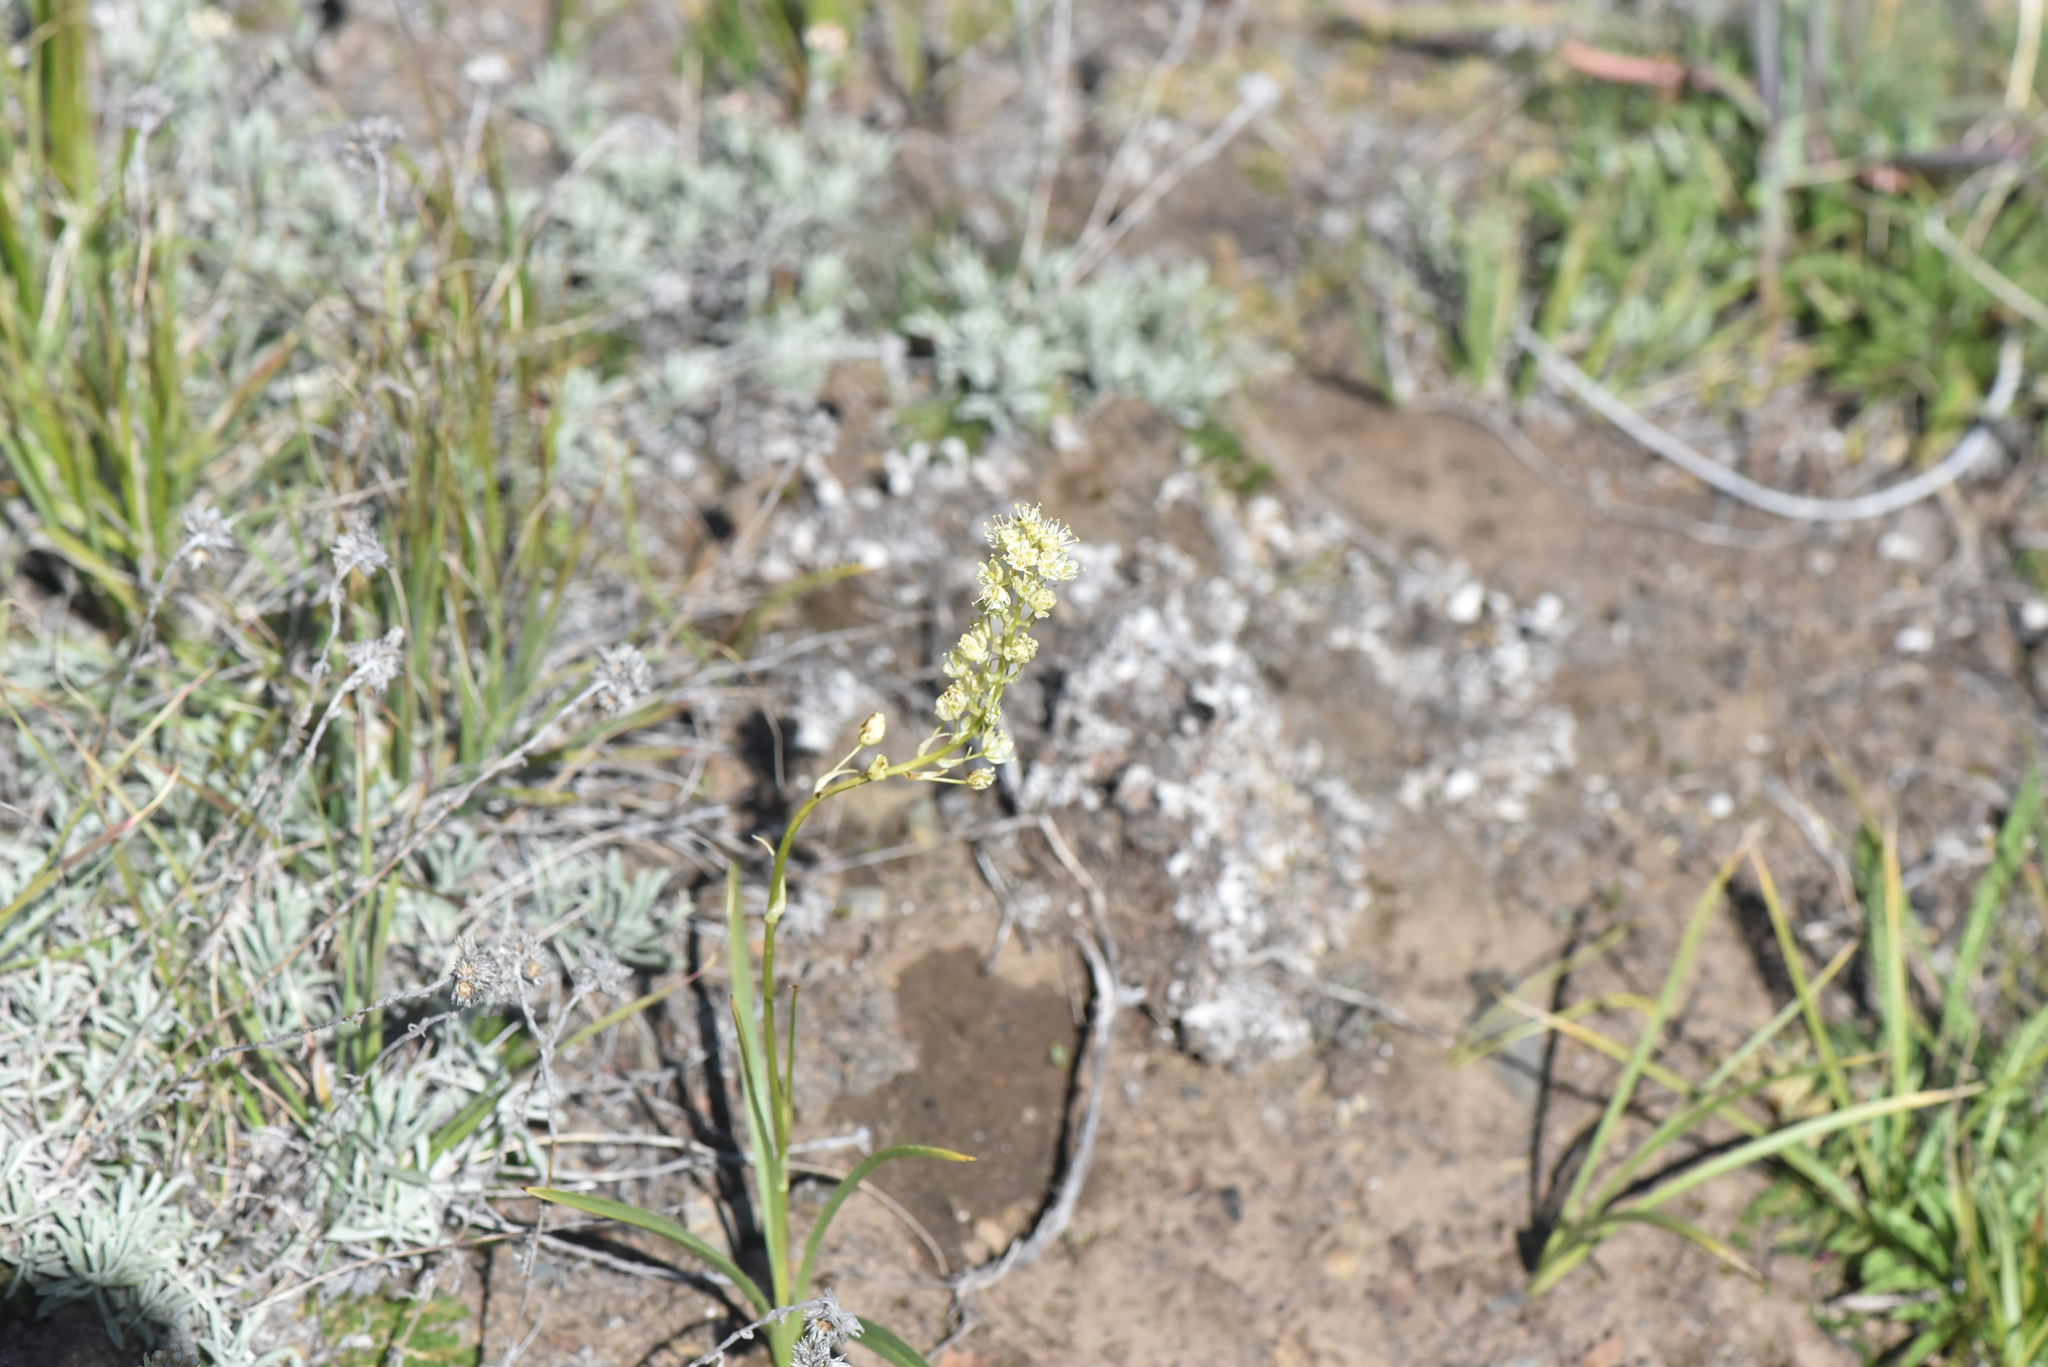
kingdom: Plantae
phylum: Tracheophyta
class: Liliopsida
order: Liliales
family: Melanthiaceae
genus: Toxicoscordion
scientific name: Toxicoscordion venenosum
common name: Meadow death camas
